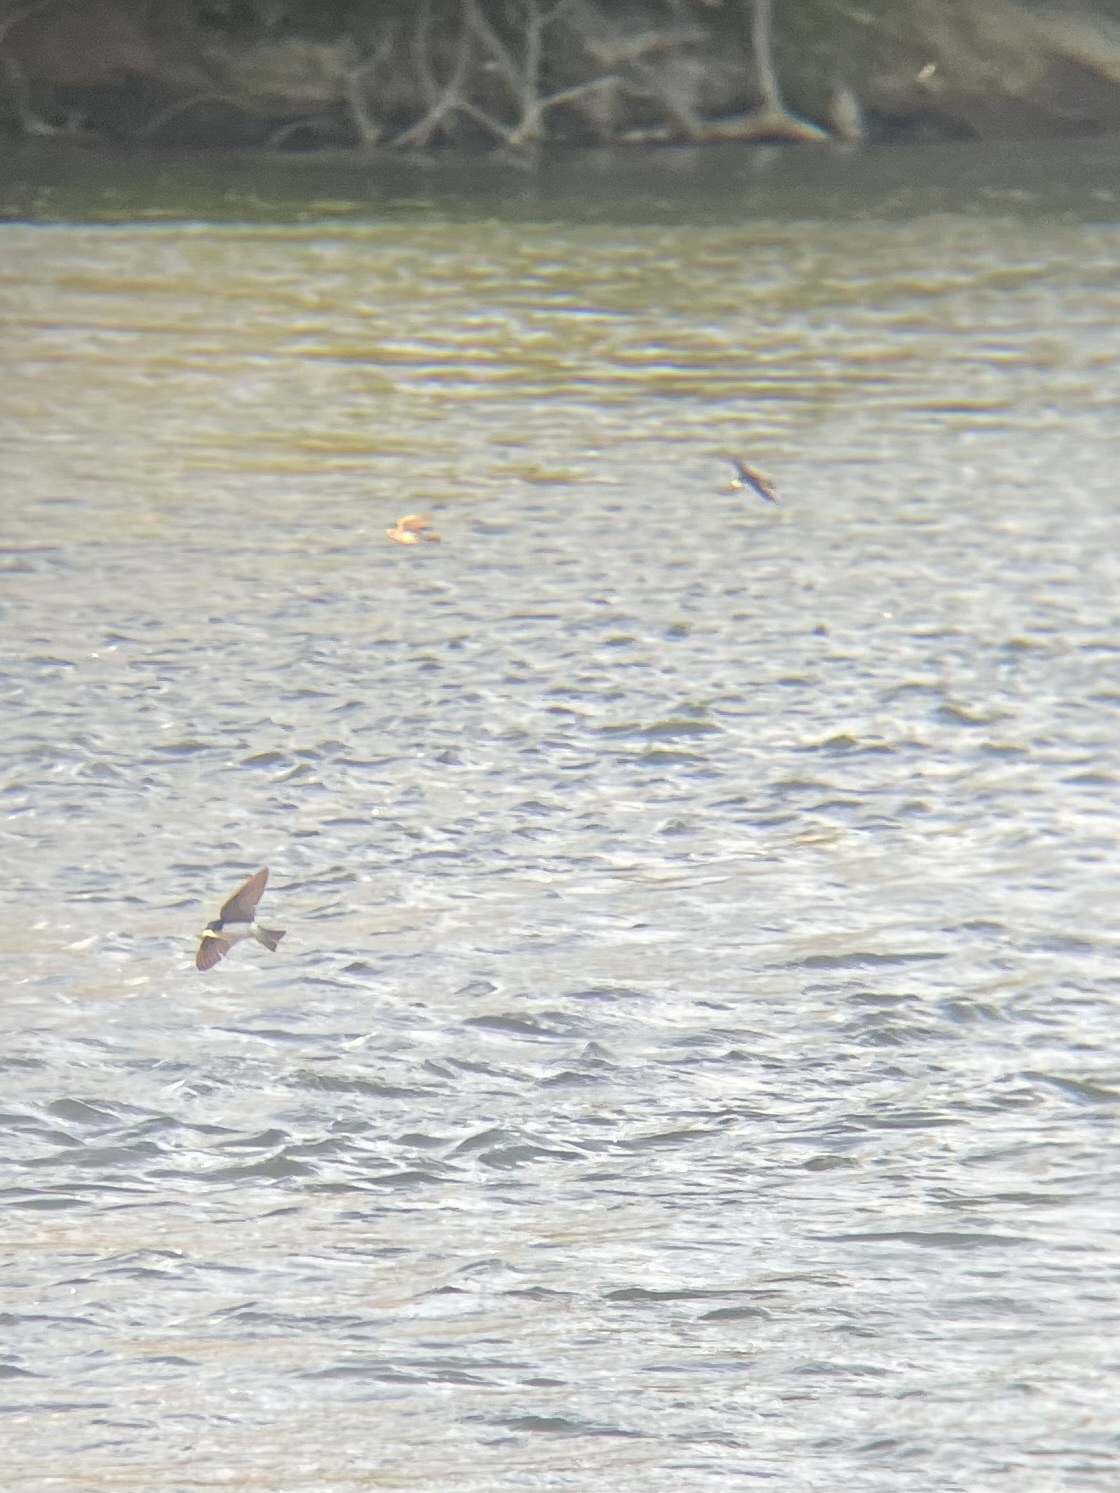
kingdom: Animalia
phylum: Chordata
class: Aves
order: Passeriformes
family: Hirundinidae
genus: Tachycineta
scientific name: Tachycineta bicolor
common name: Tree swallow
